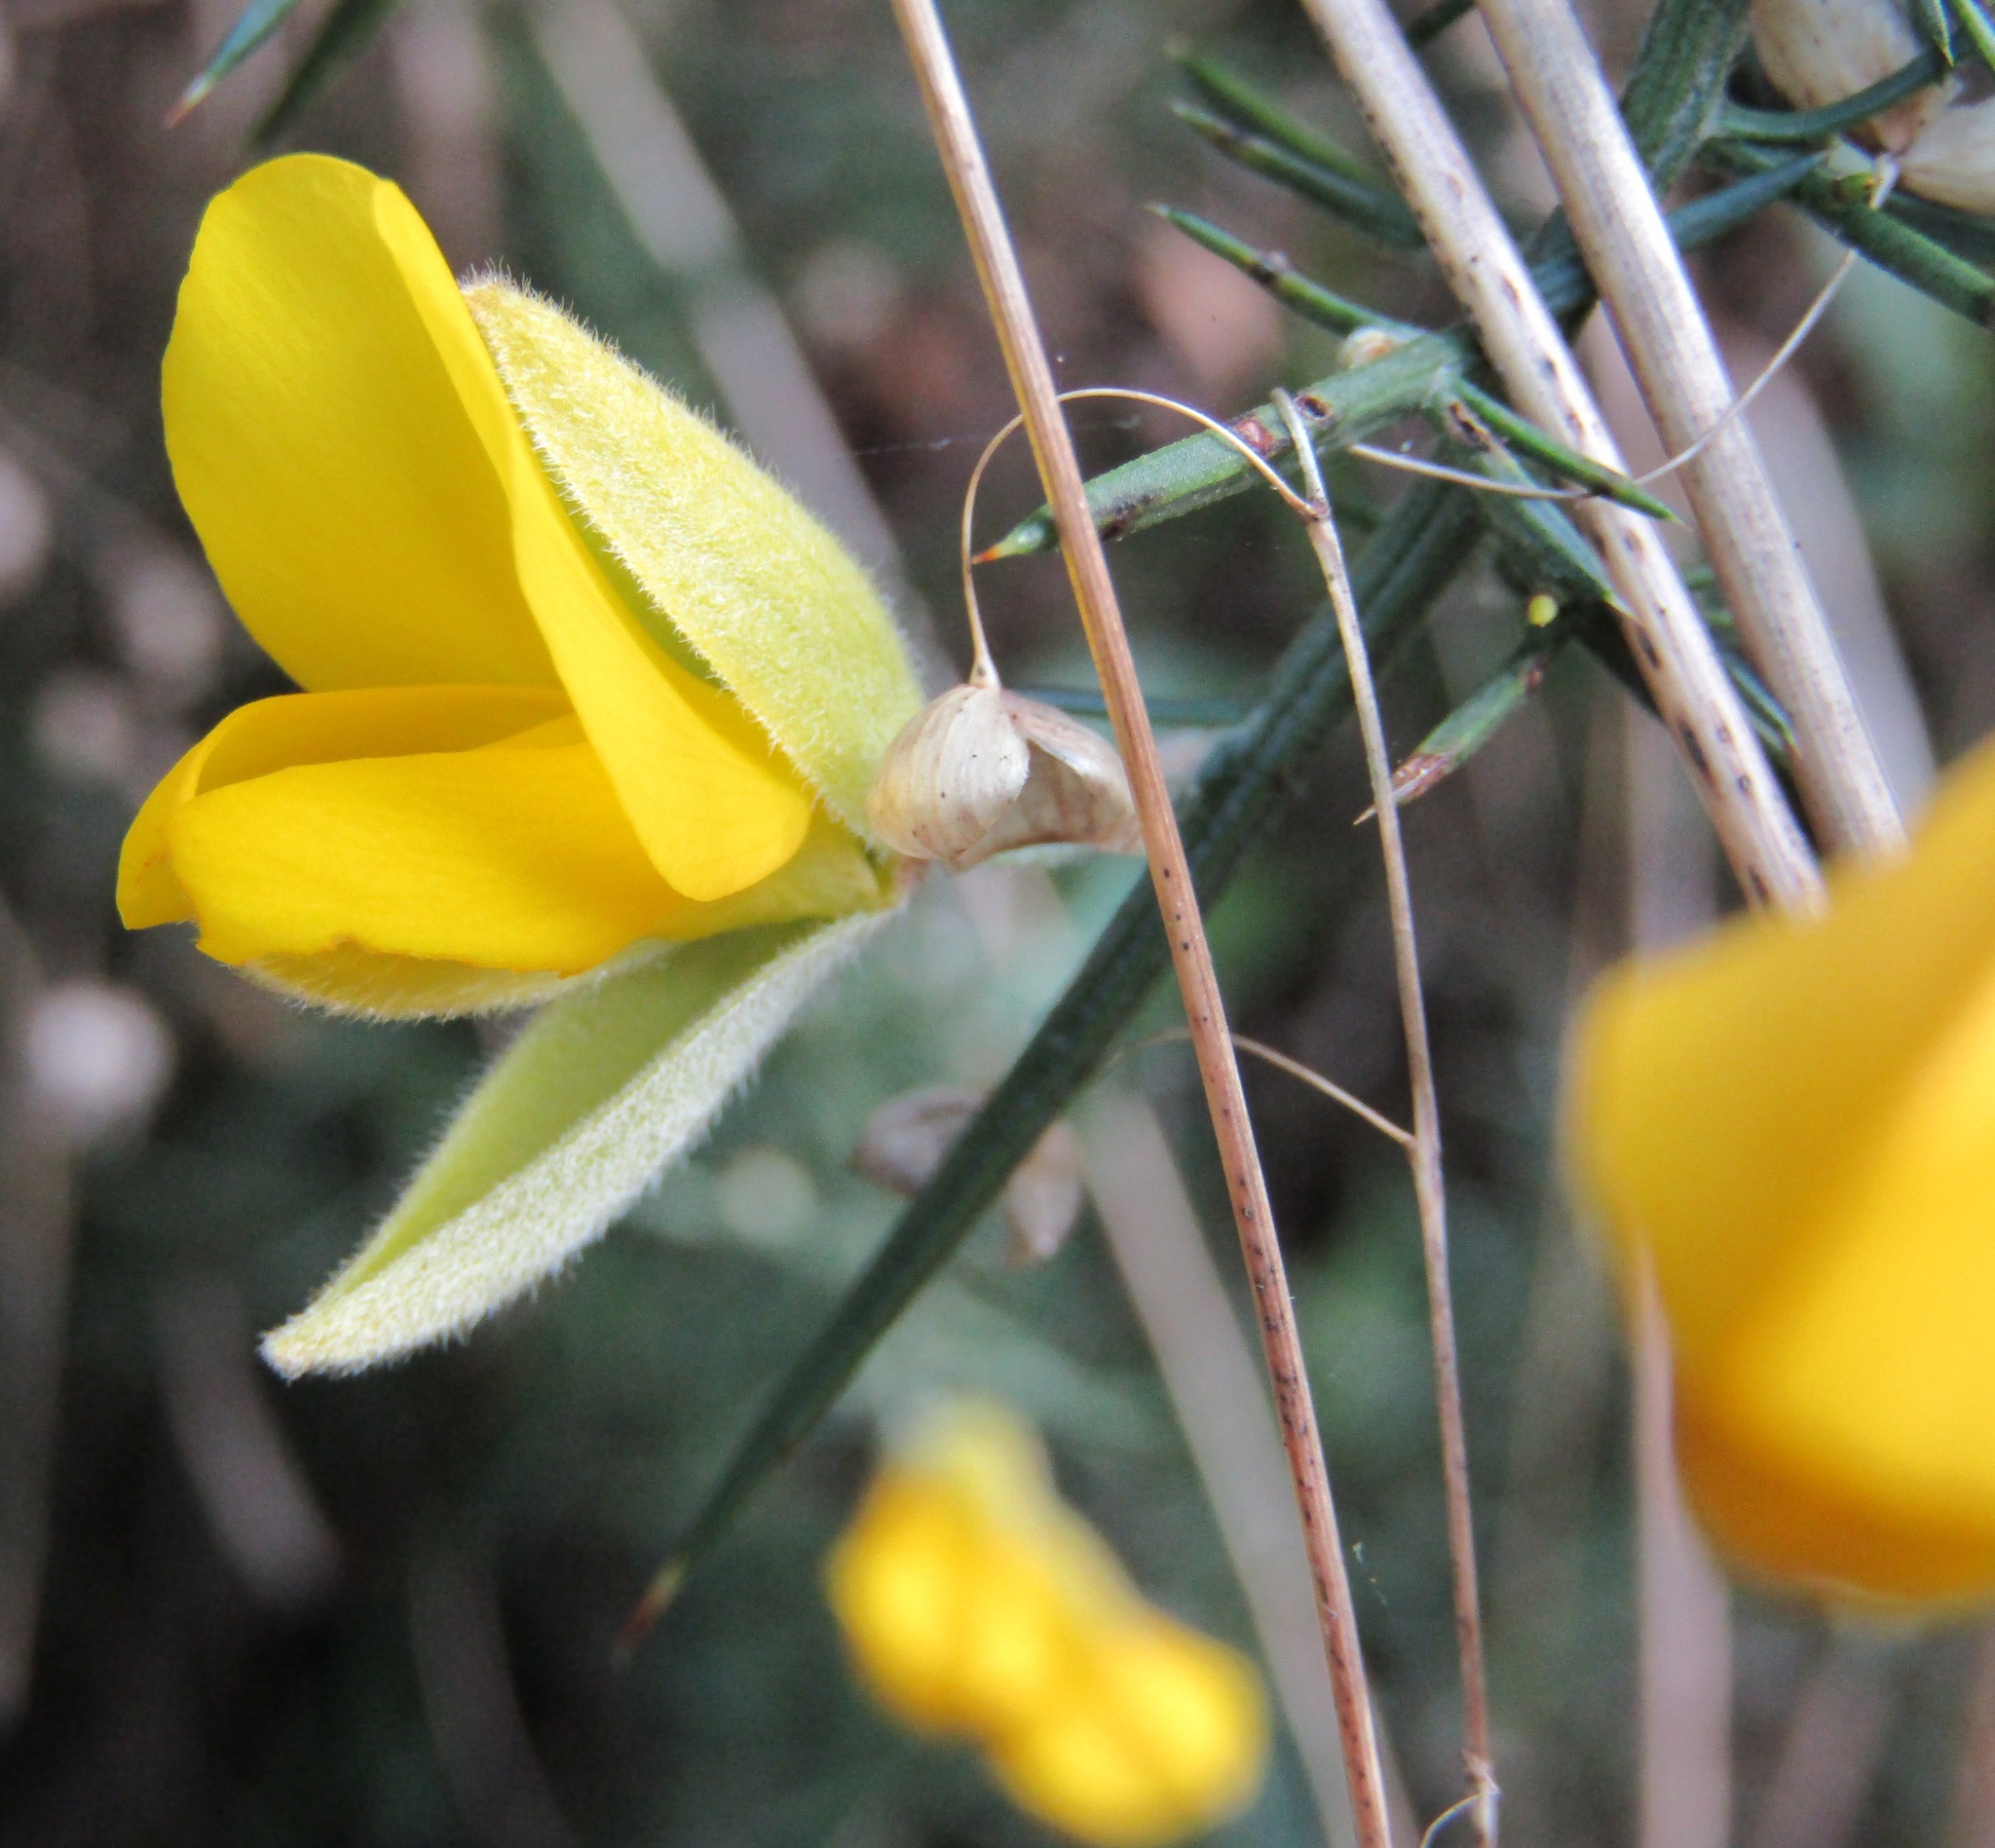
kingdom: Plantae
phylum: Tracheophyta
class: Magnoliopsida
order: Fabales
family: Fabaceae
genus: Ulex
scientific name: Ulex europaeus
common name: Common gorse
